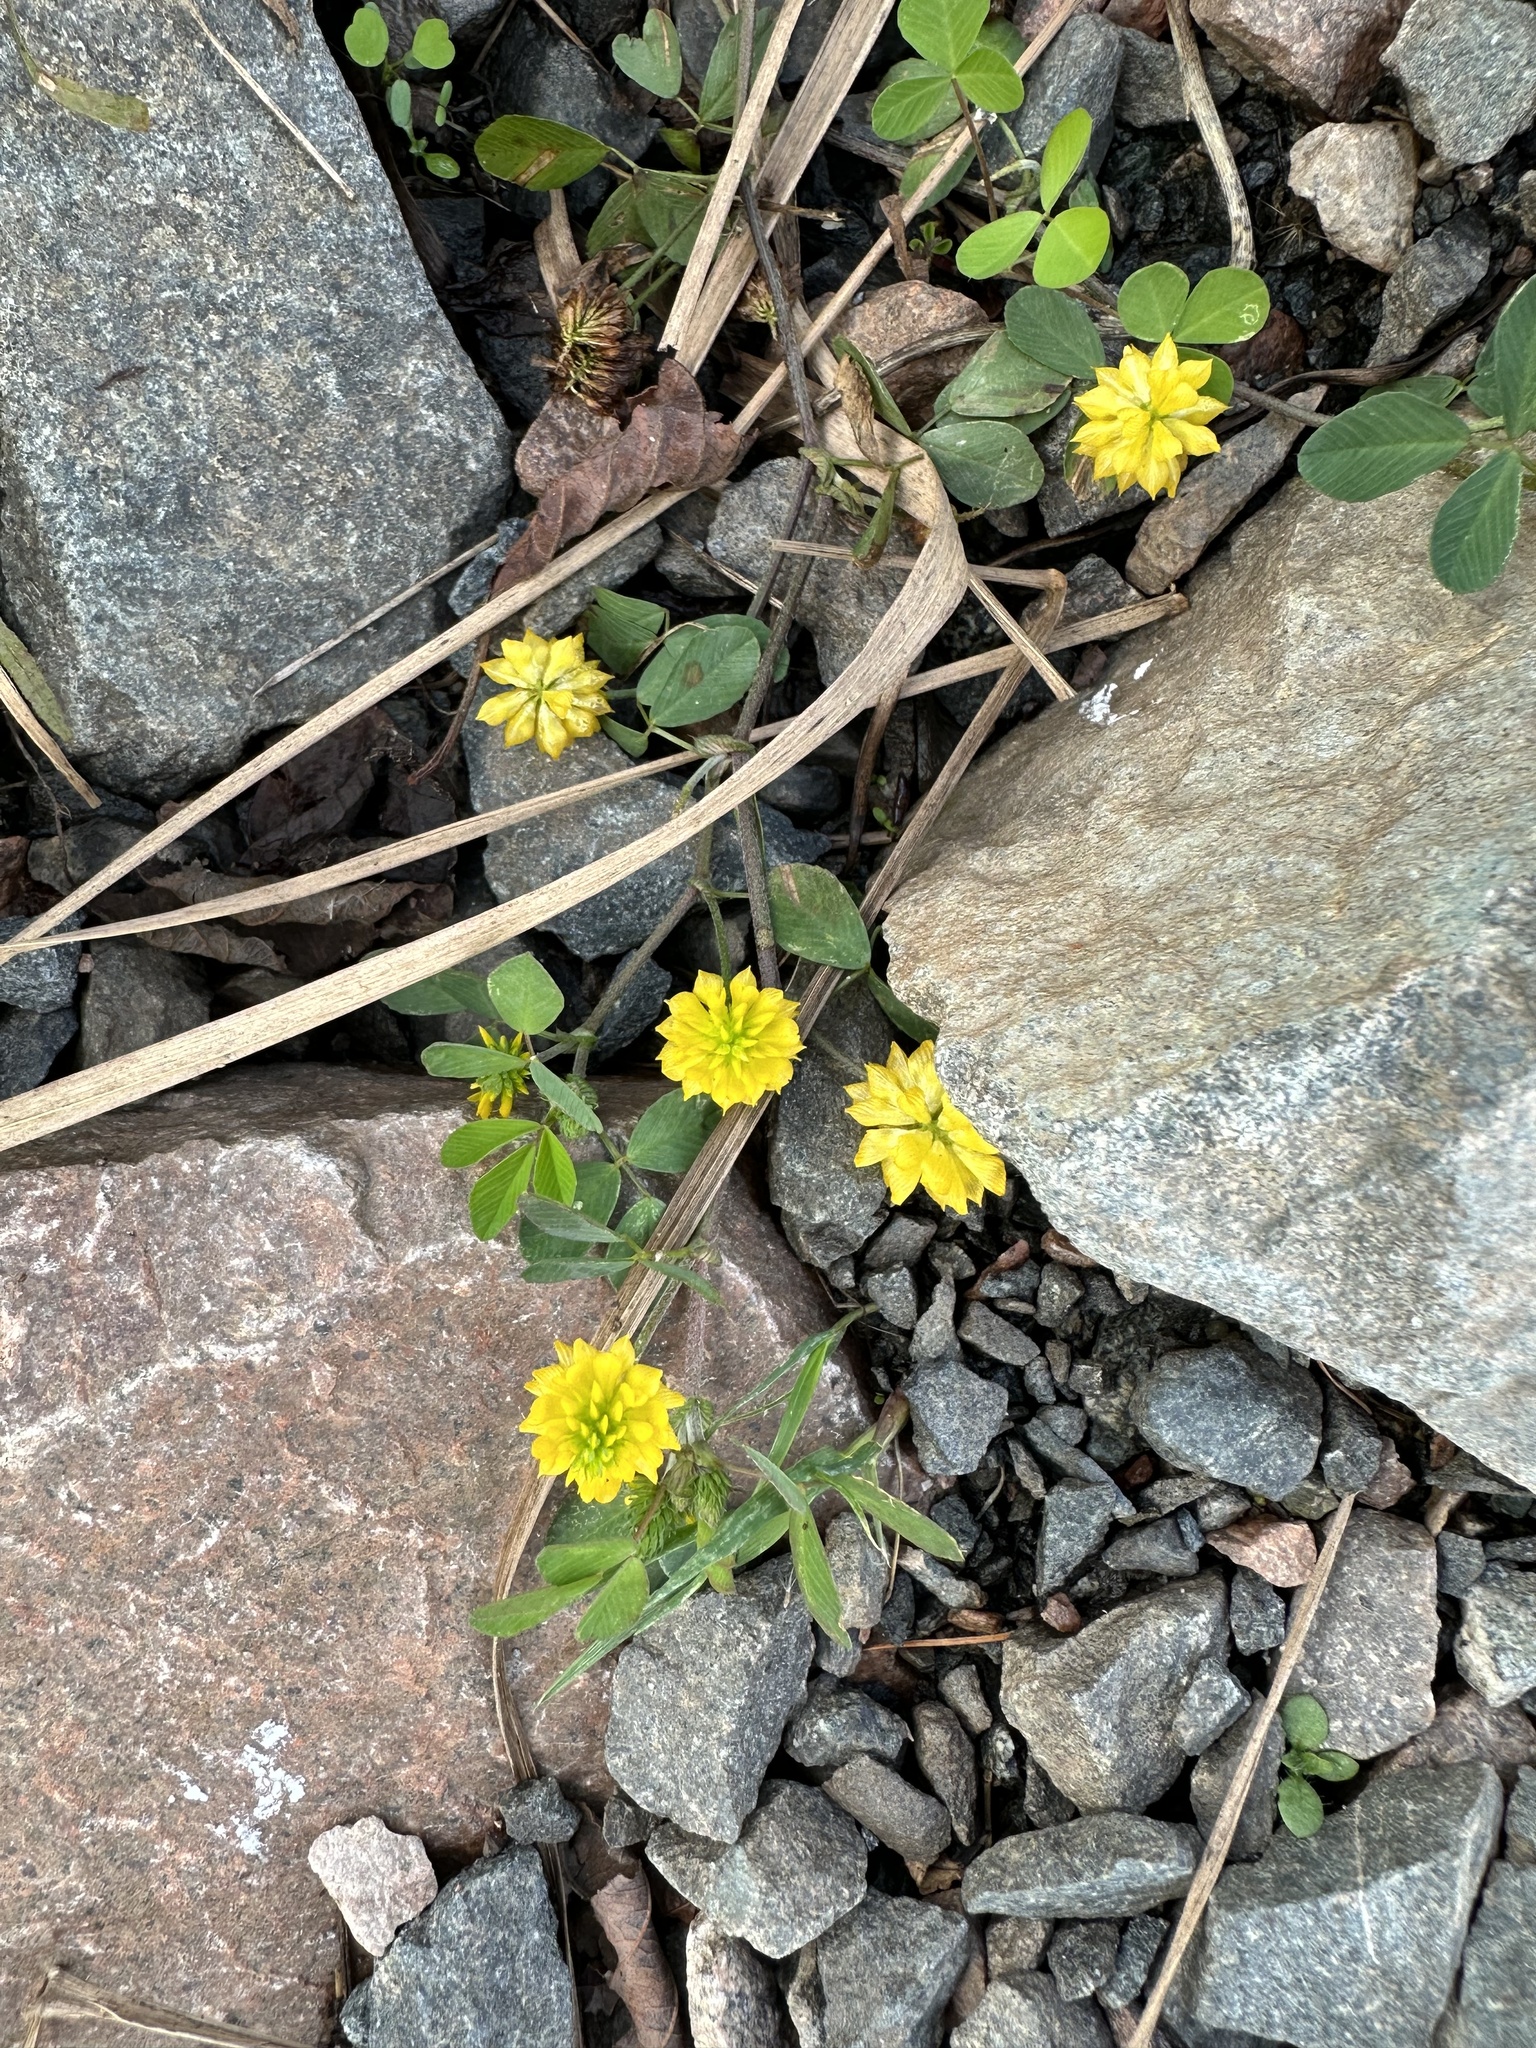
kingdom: Plantae
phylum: Tracheophyta
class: Magnoliopsida
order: Fabales
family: Fabaceae
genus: Trifolium
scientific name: Trifolium campestre
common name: Field clover
